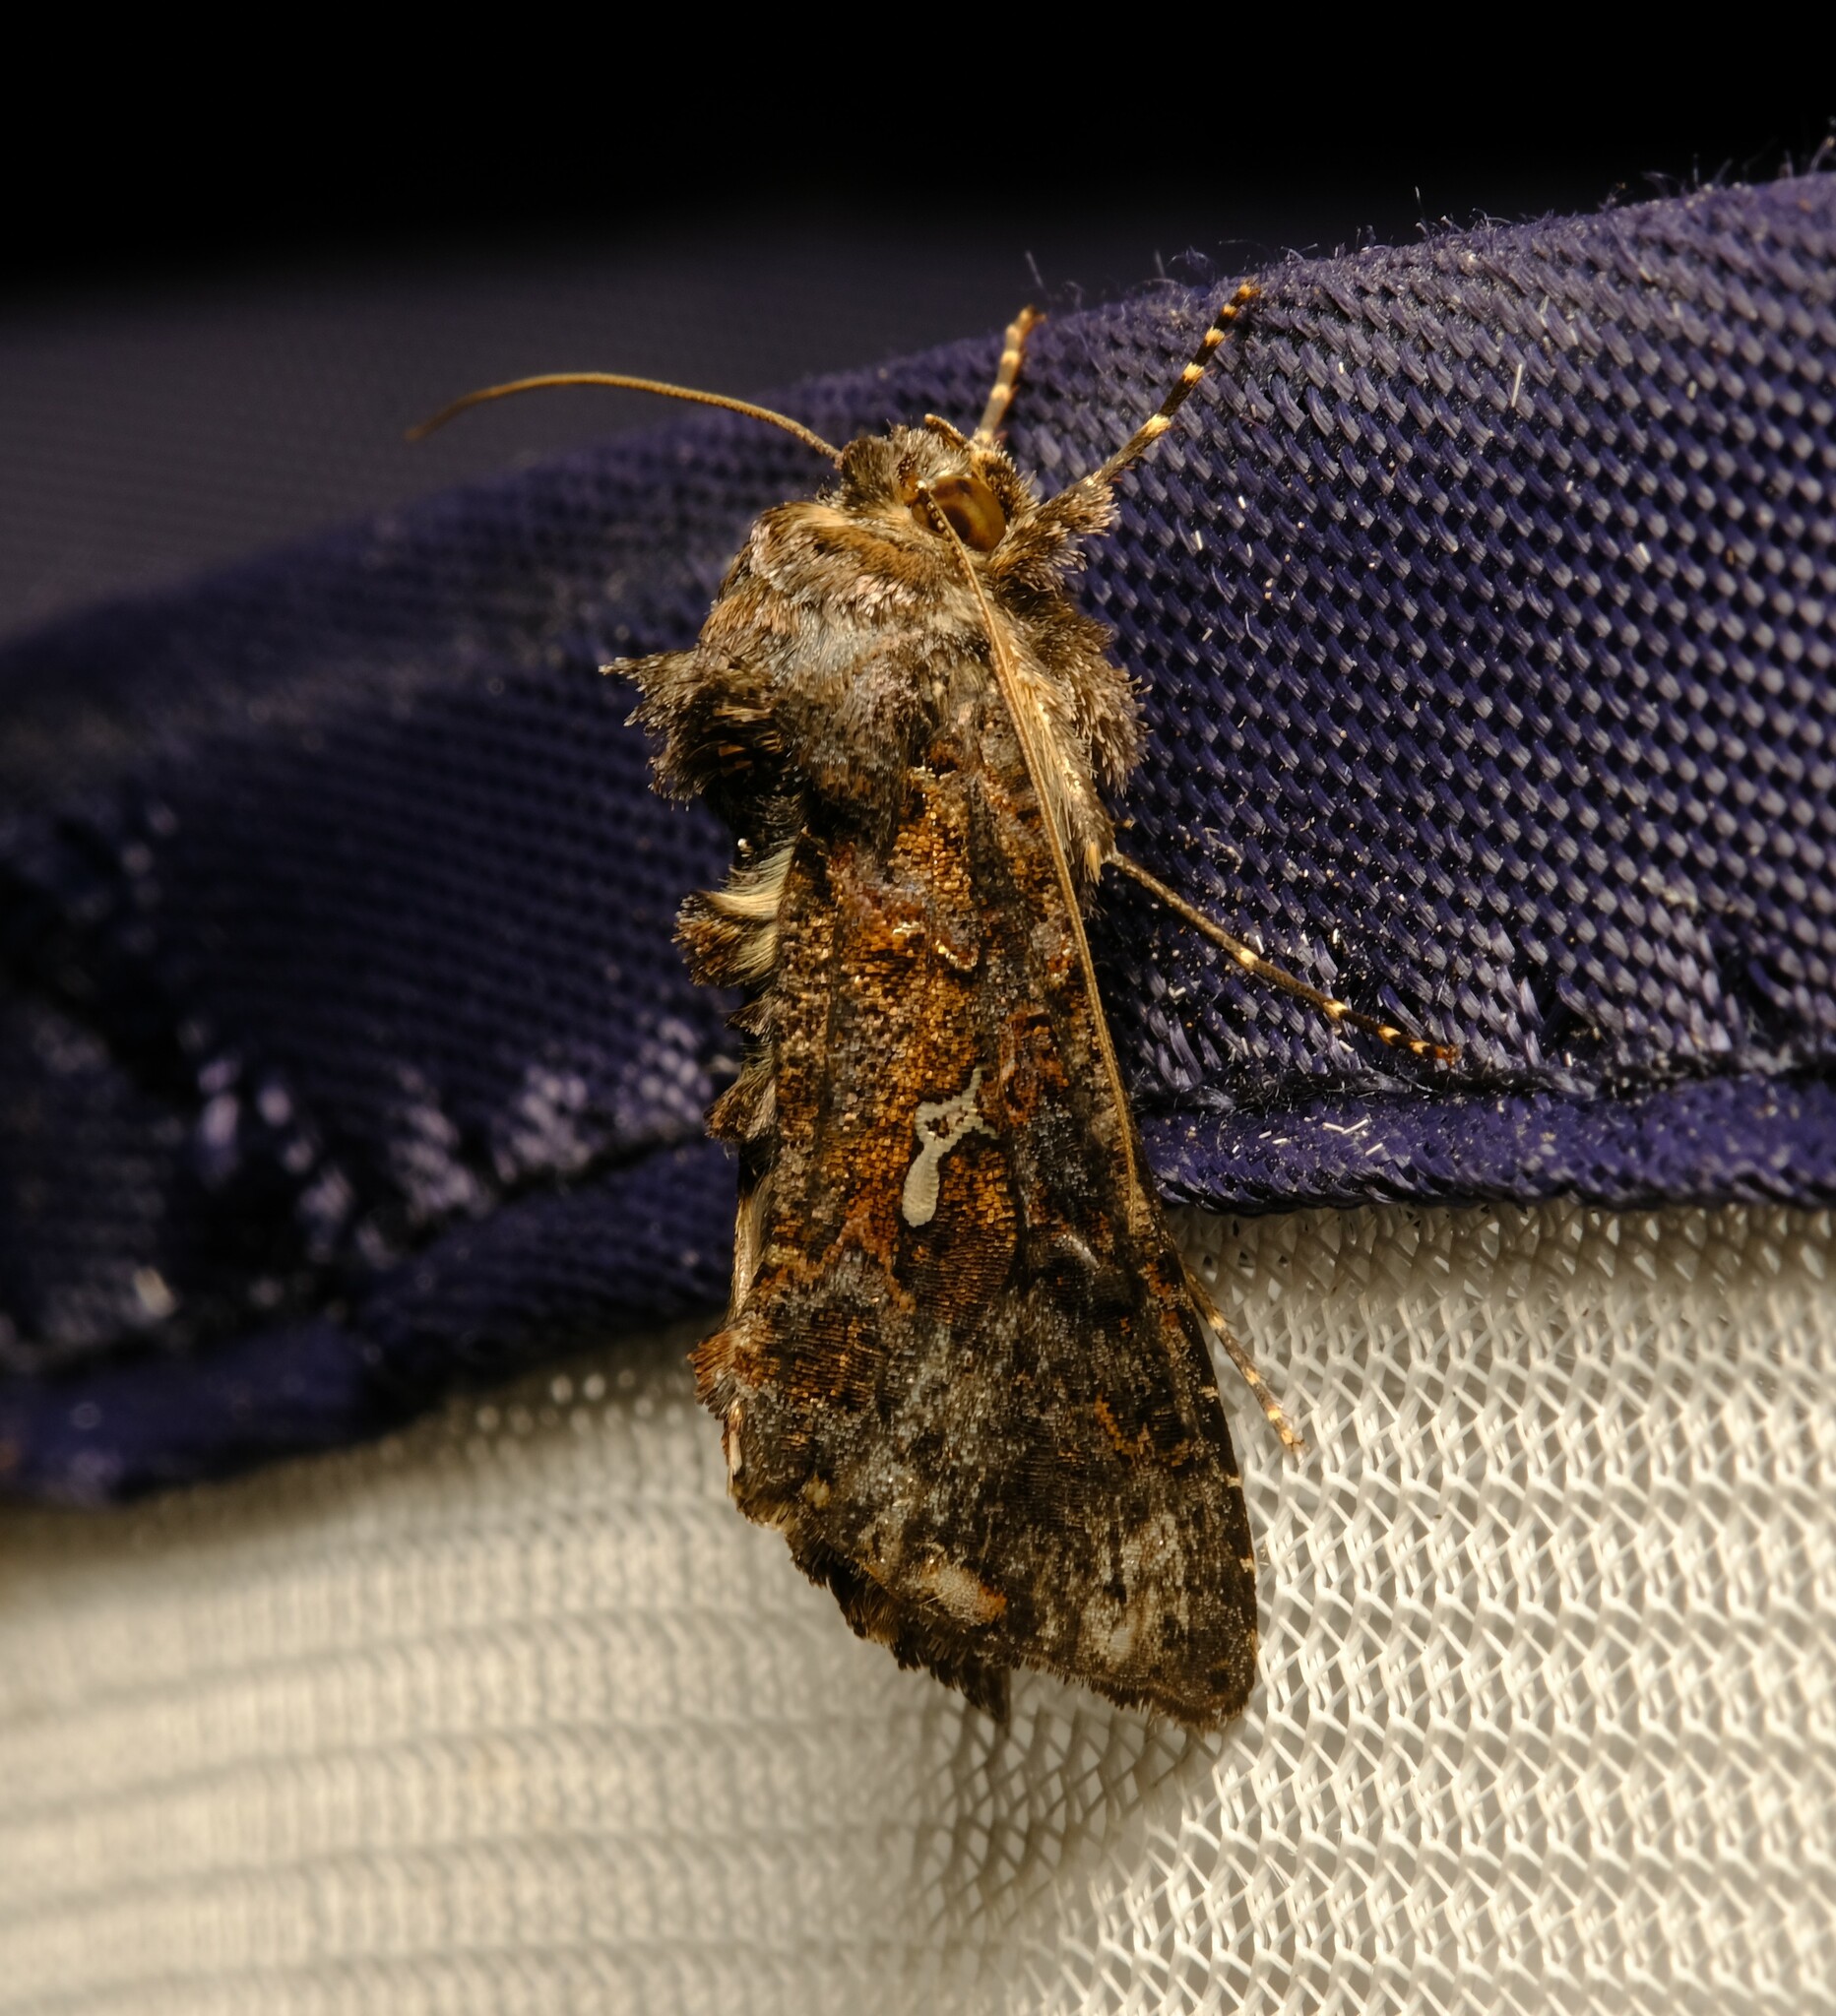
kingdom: Animalia
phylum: Arthropoda
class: Insecta
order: Lepidoptera
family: Noctuidae
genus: Ctenoplusia
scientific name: Ctenoplusia limbirena
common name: Scar bank gem
